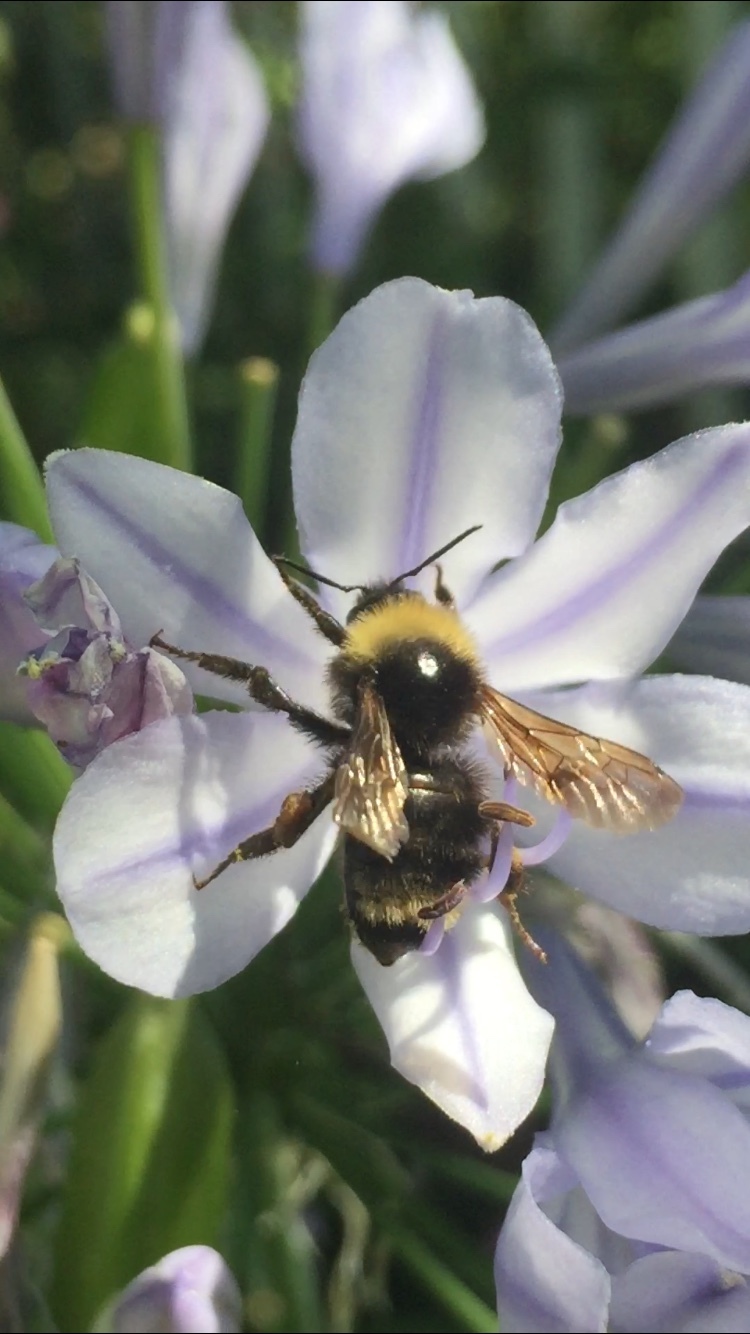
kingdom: Animalia
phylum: Arthropoda
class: Insecta
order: Hymenoptera
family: Apidae
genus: Bombus
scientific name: Bombus californicus
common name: California bumble bee
